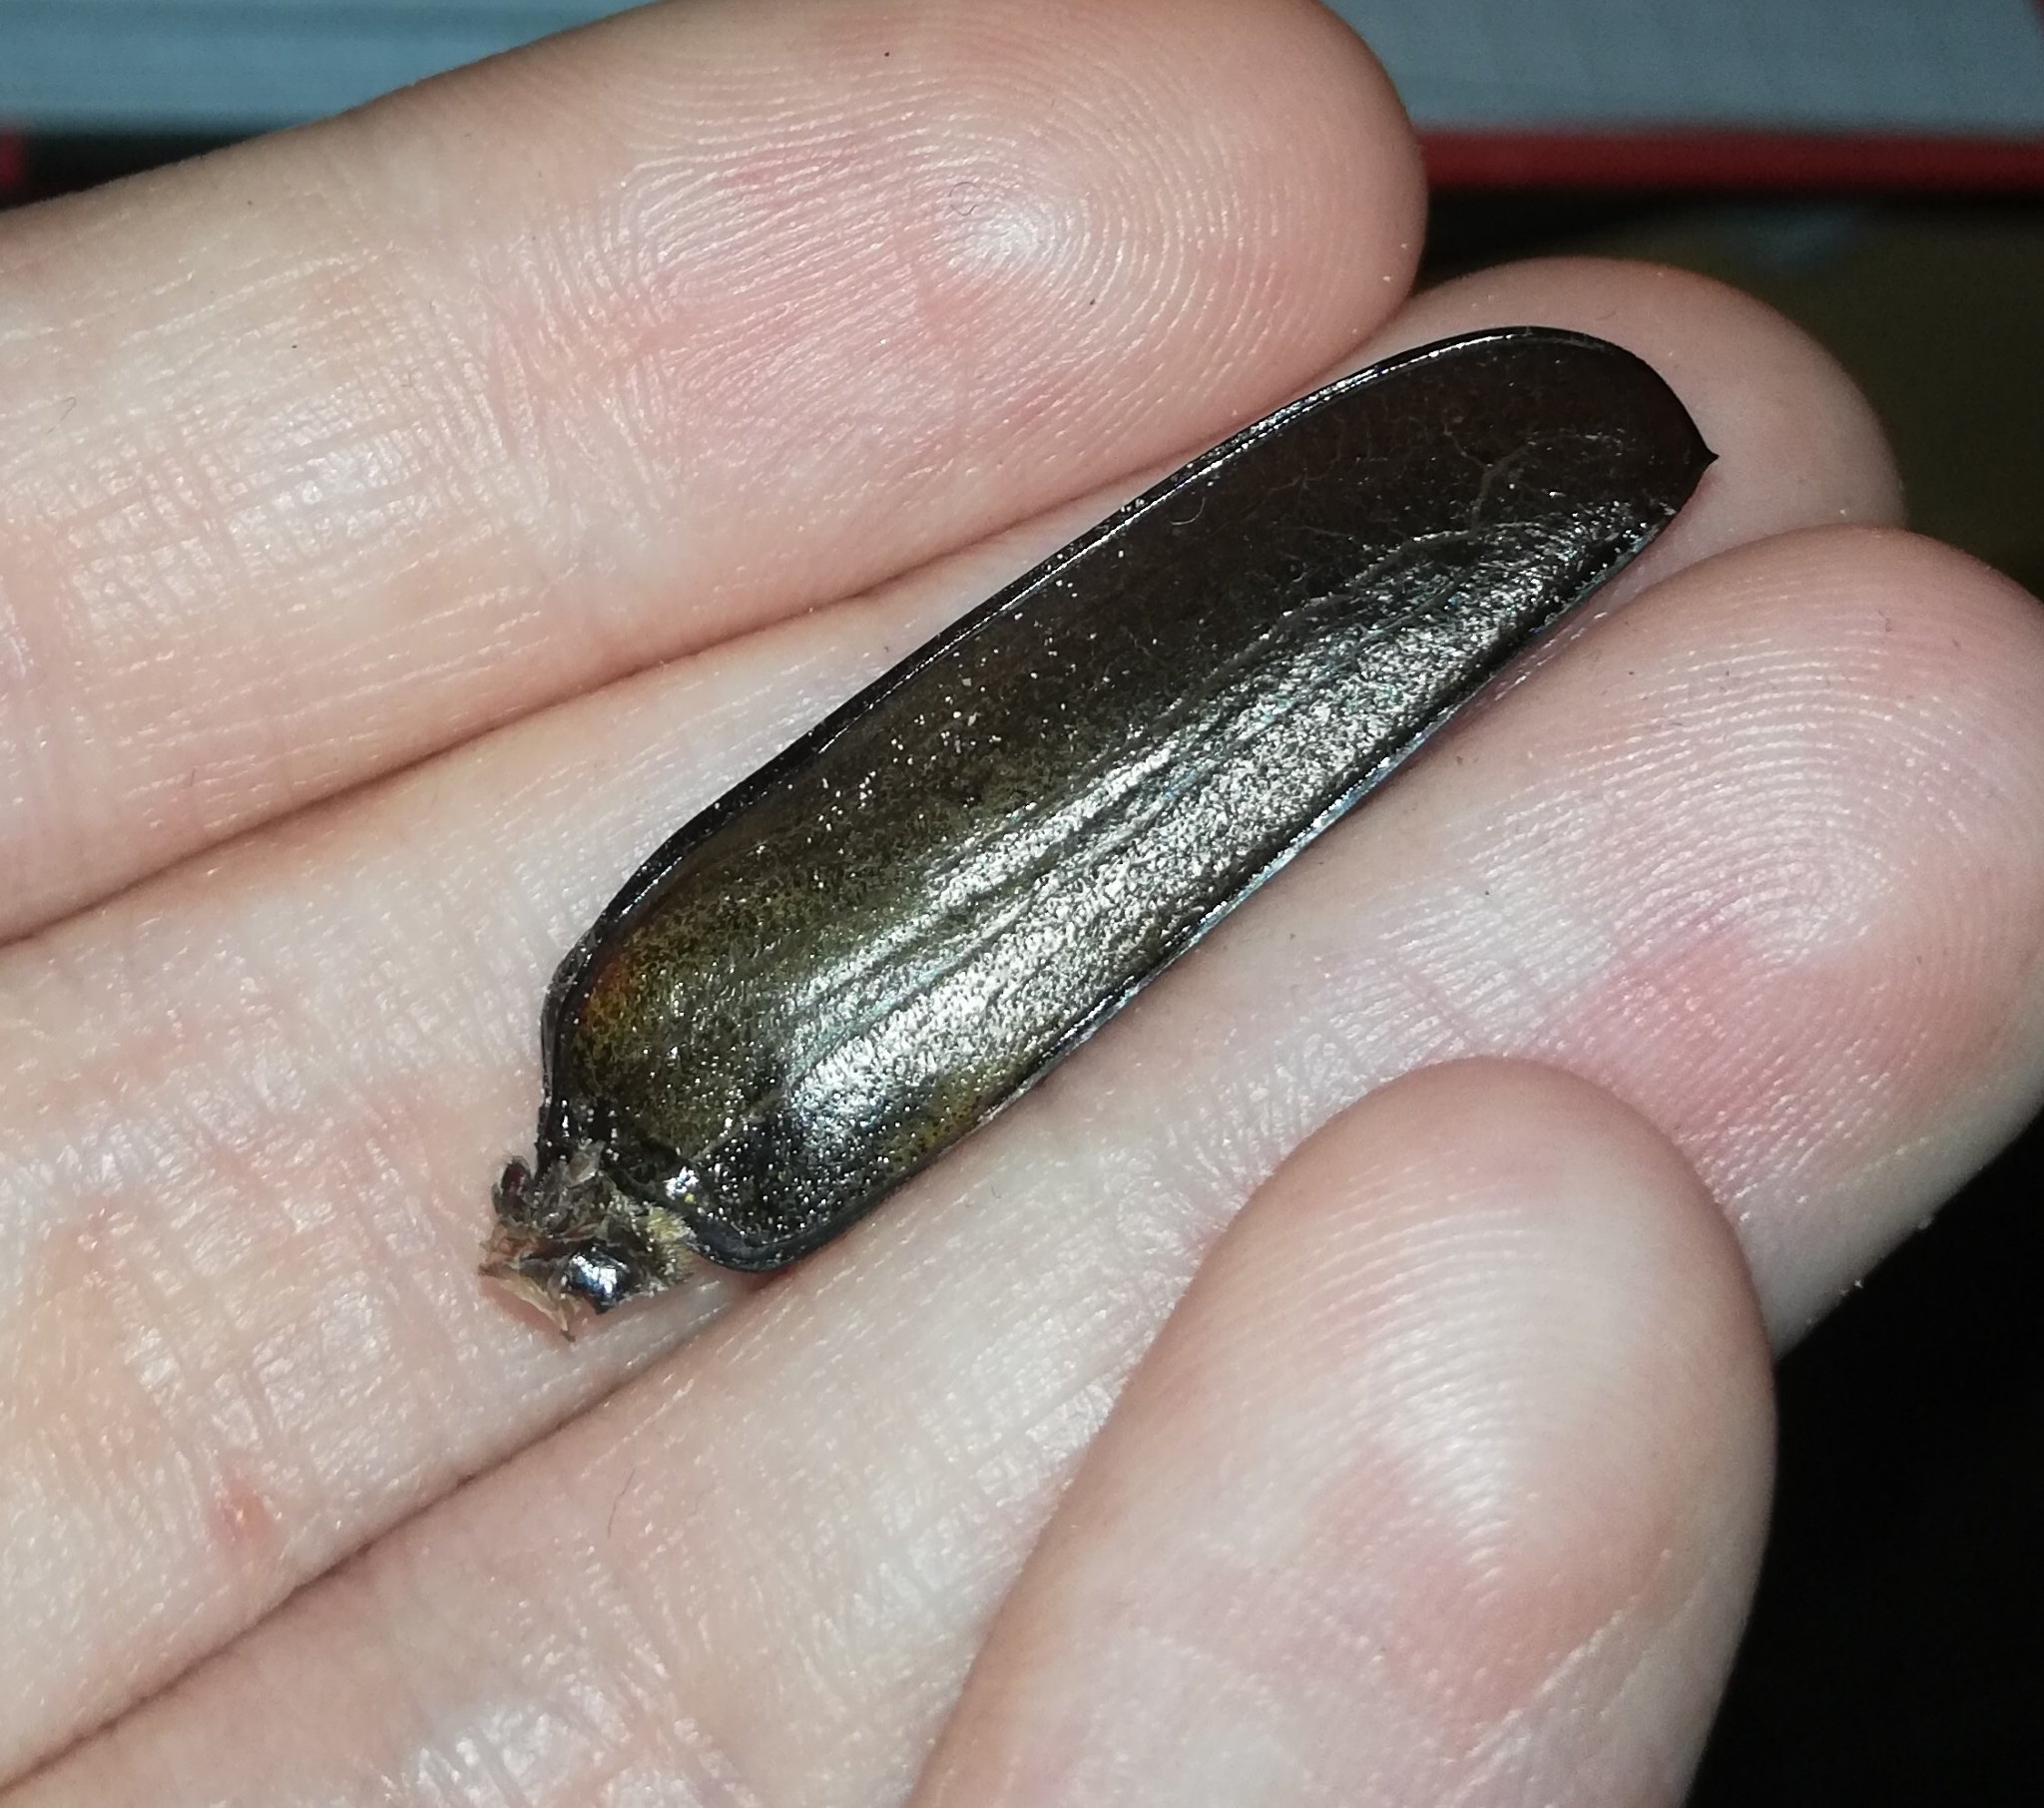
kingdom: Animalia
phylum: Arthropoda
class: Insecta
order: Coleoptera
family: Cerambycidae
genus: Prionus
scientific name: Prionus coriarius
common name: Tanner beetle
